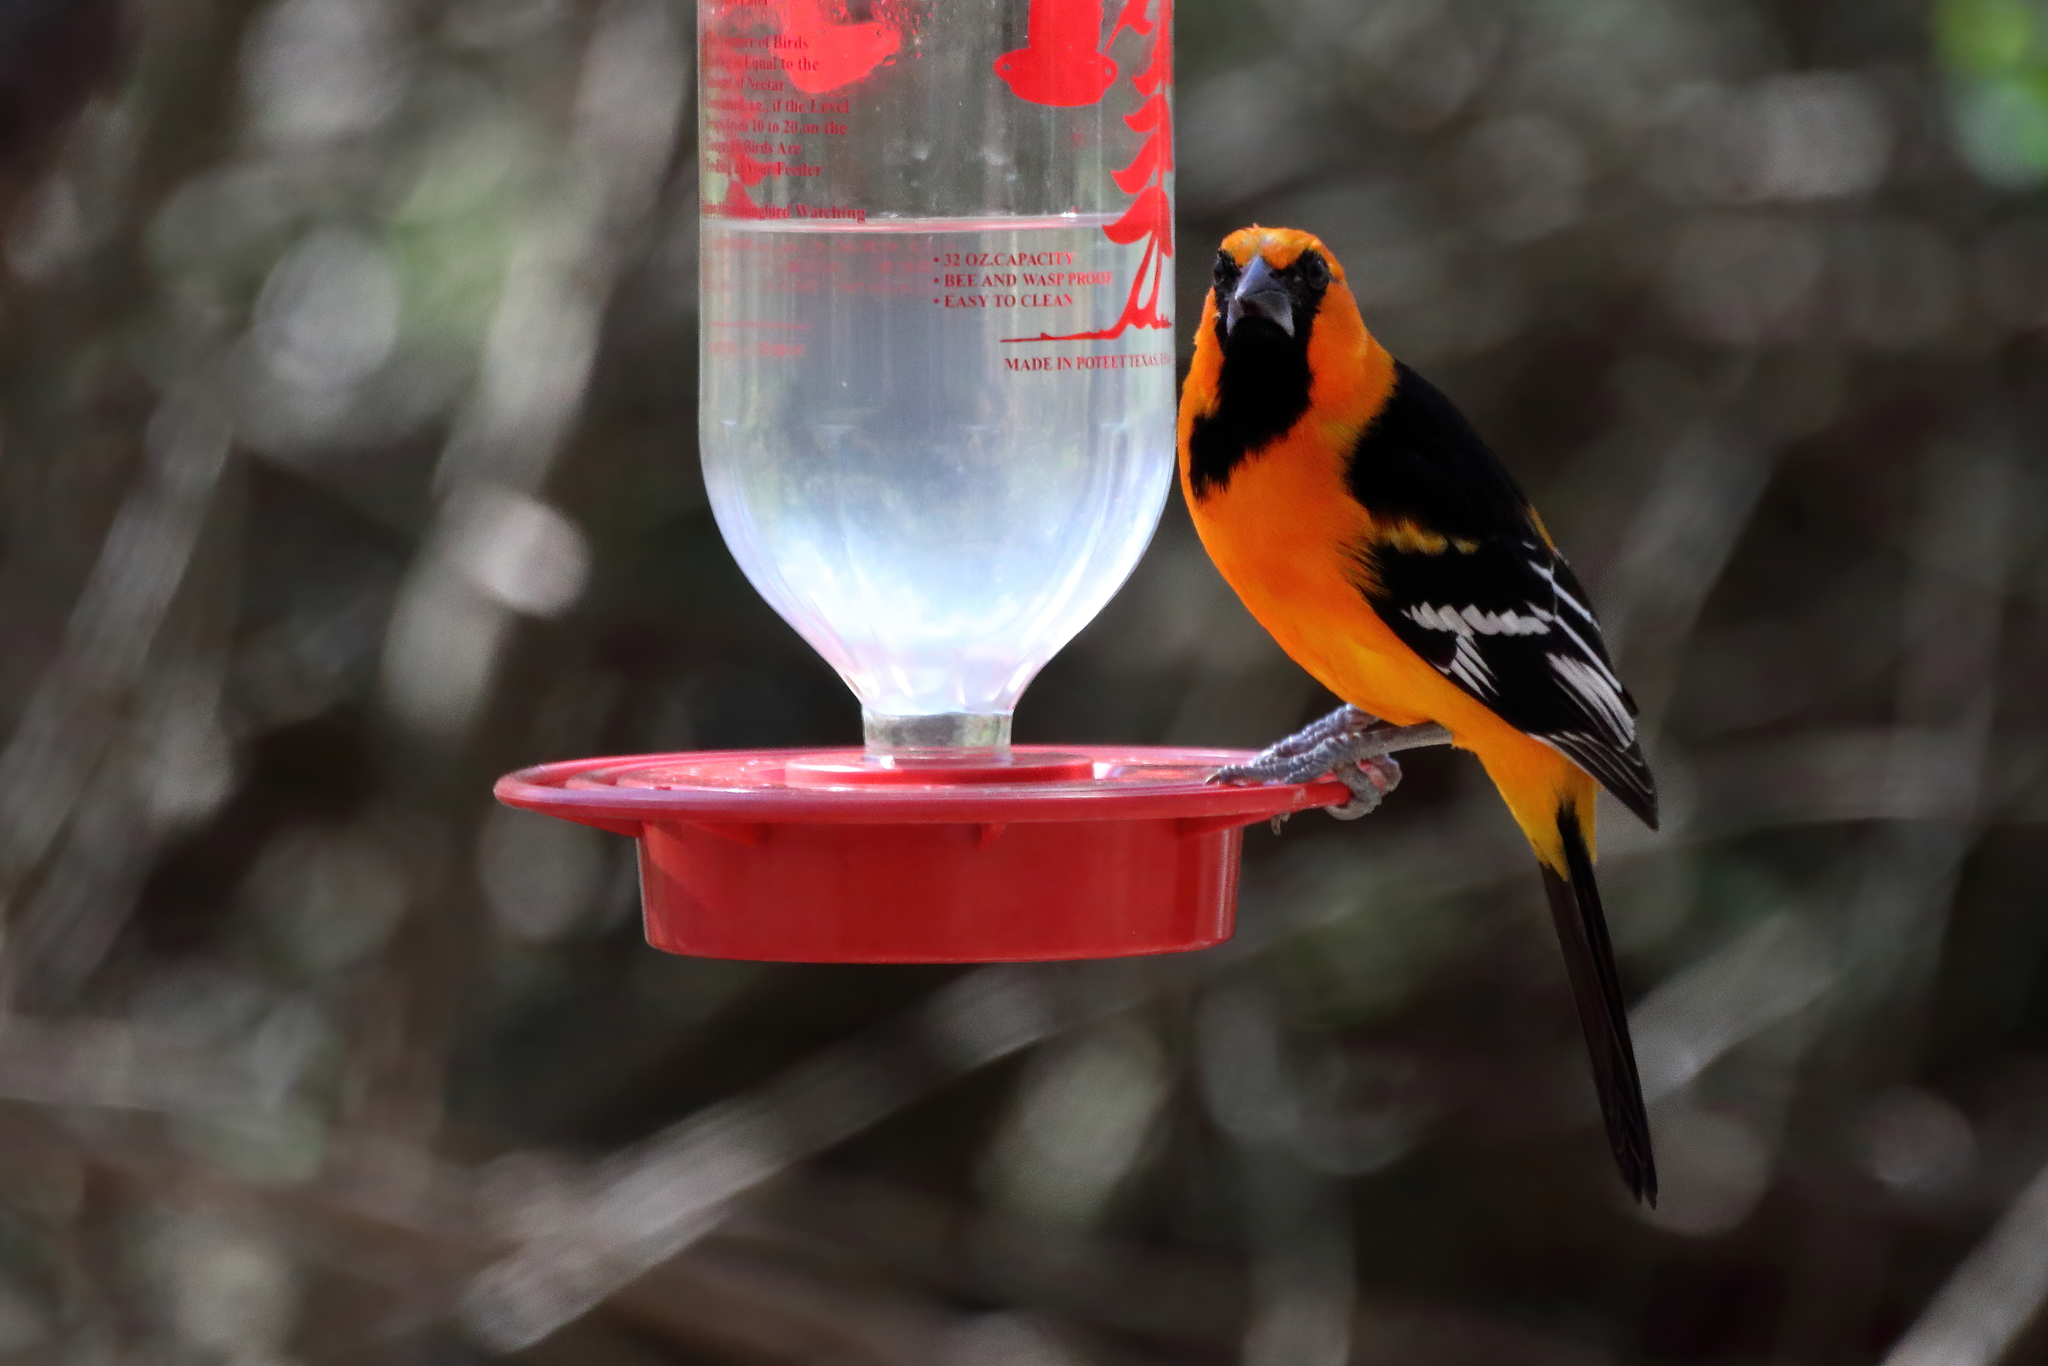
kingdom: Animalia
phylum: Chordata
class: Aves
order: Passeriformes
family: Icteridae
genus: Icterus
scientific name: Icterus gularis
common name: Altamira oriole
